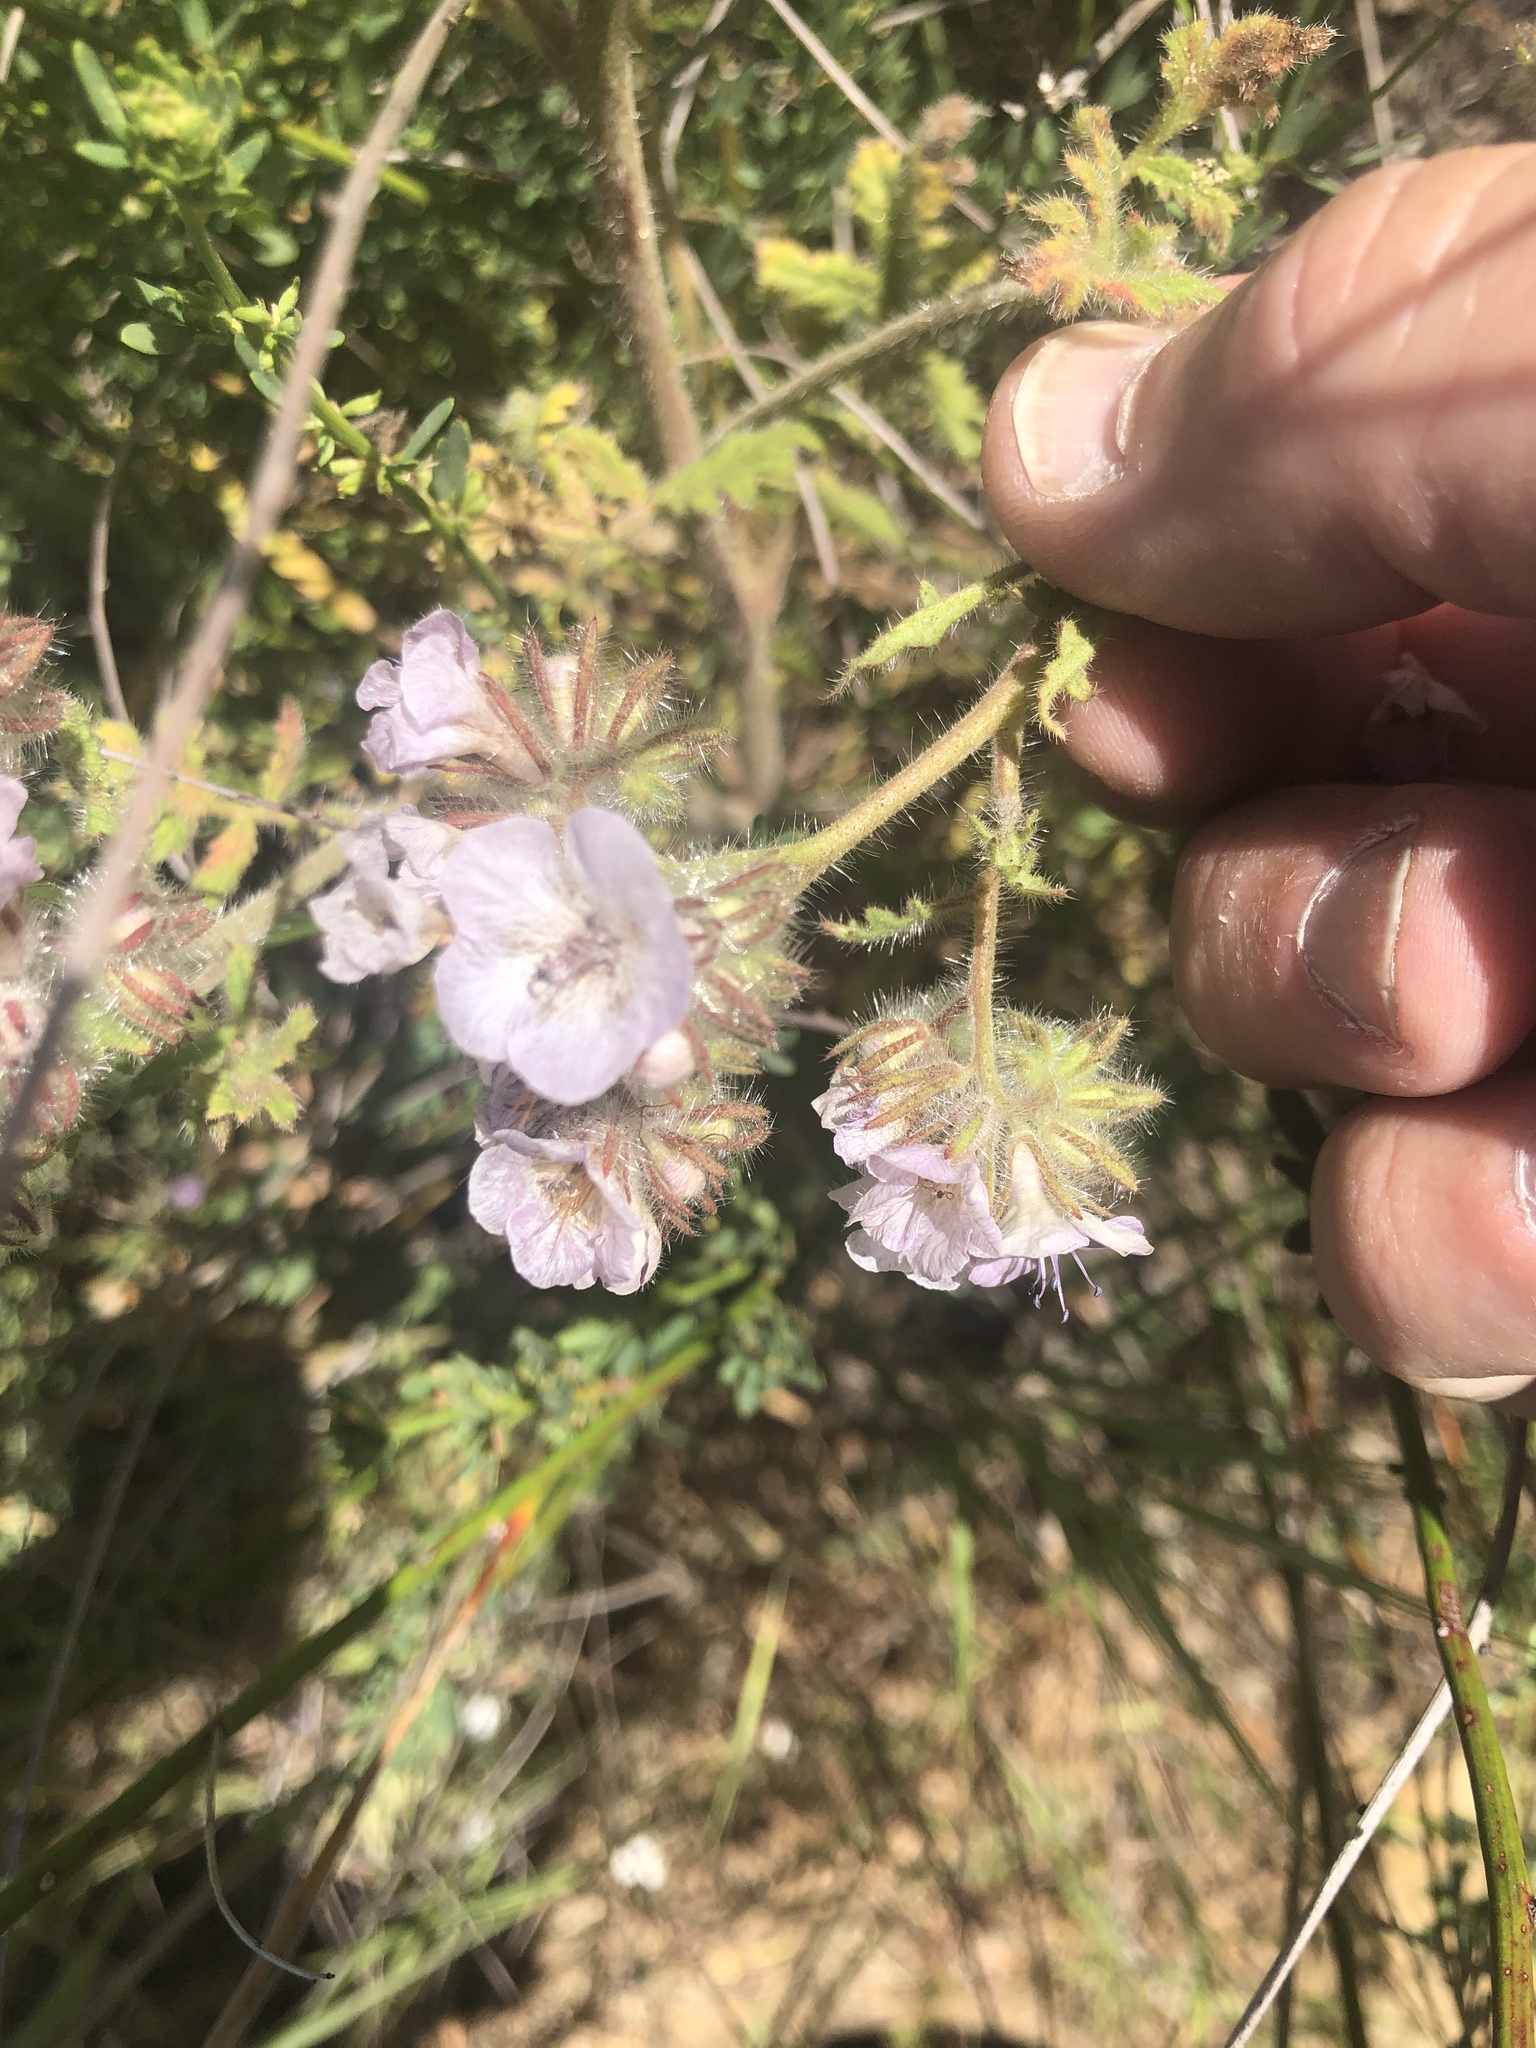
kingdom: Plantae
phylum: Tracheophyta
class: Magnoliopsida
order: Boraginales
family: Hydrophyllaceae
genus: Phacelia
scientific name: Phacelia cicutaria
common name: Caterpillar phacelia
